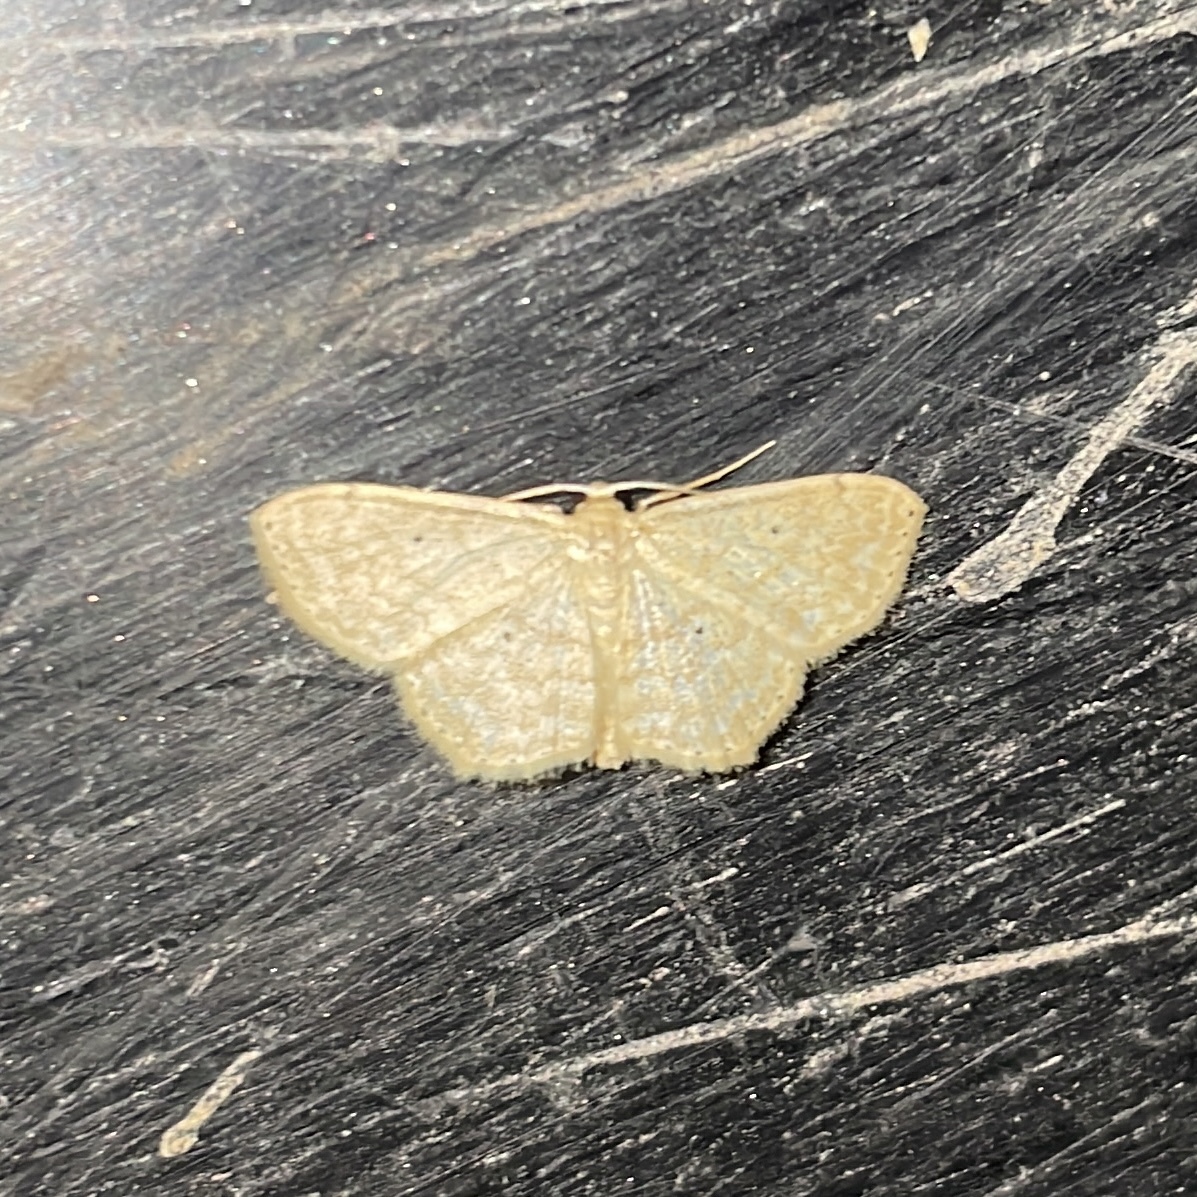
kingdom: Animalia
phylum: Arthropoda
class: Insecta
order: Lepidoptera
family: Geometridae
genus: Scopula
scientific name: Scopula apparitaria
